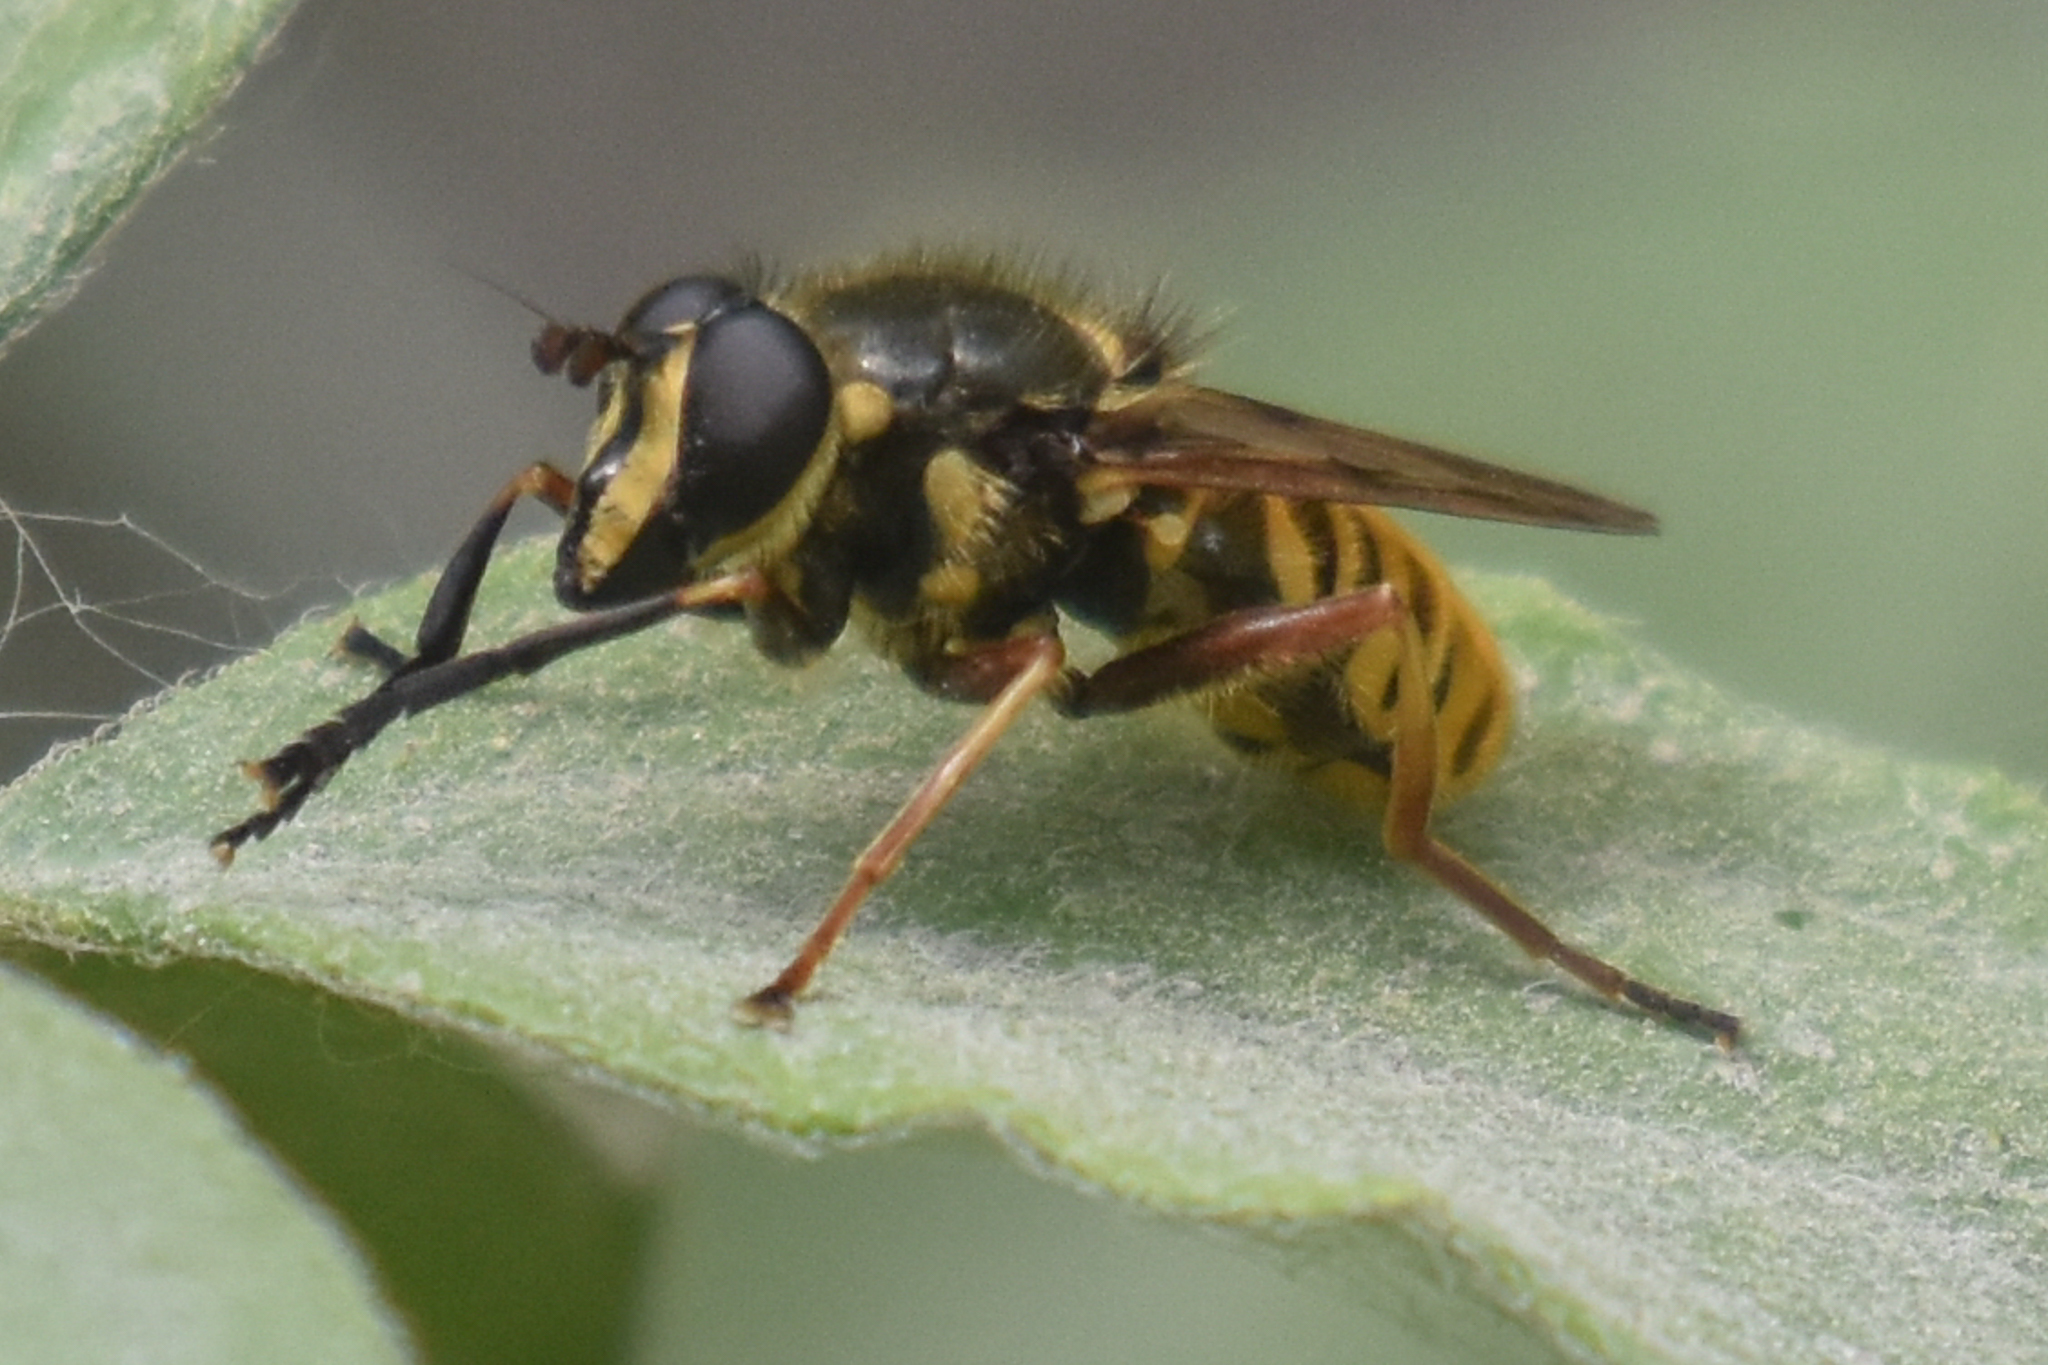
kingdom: Animalia
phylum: Arthropoda
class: Insecta
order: Diptera
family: Syrphidae
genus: Sphecomyia
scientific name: Sphecomyia pattonii
